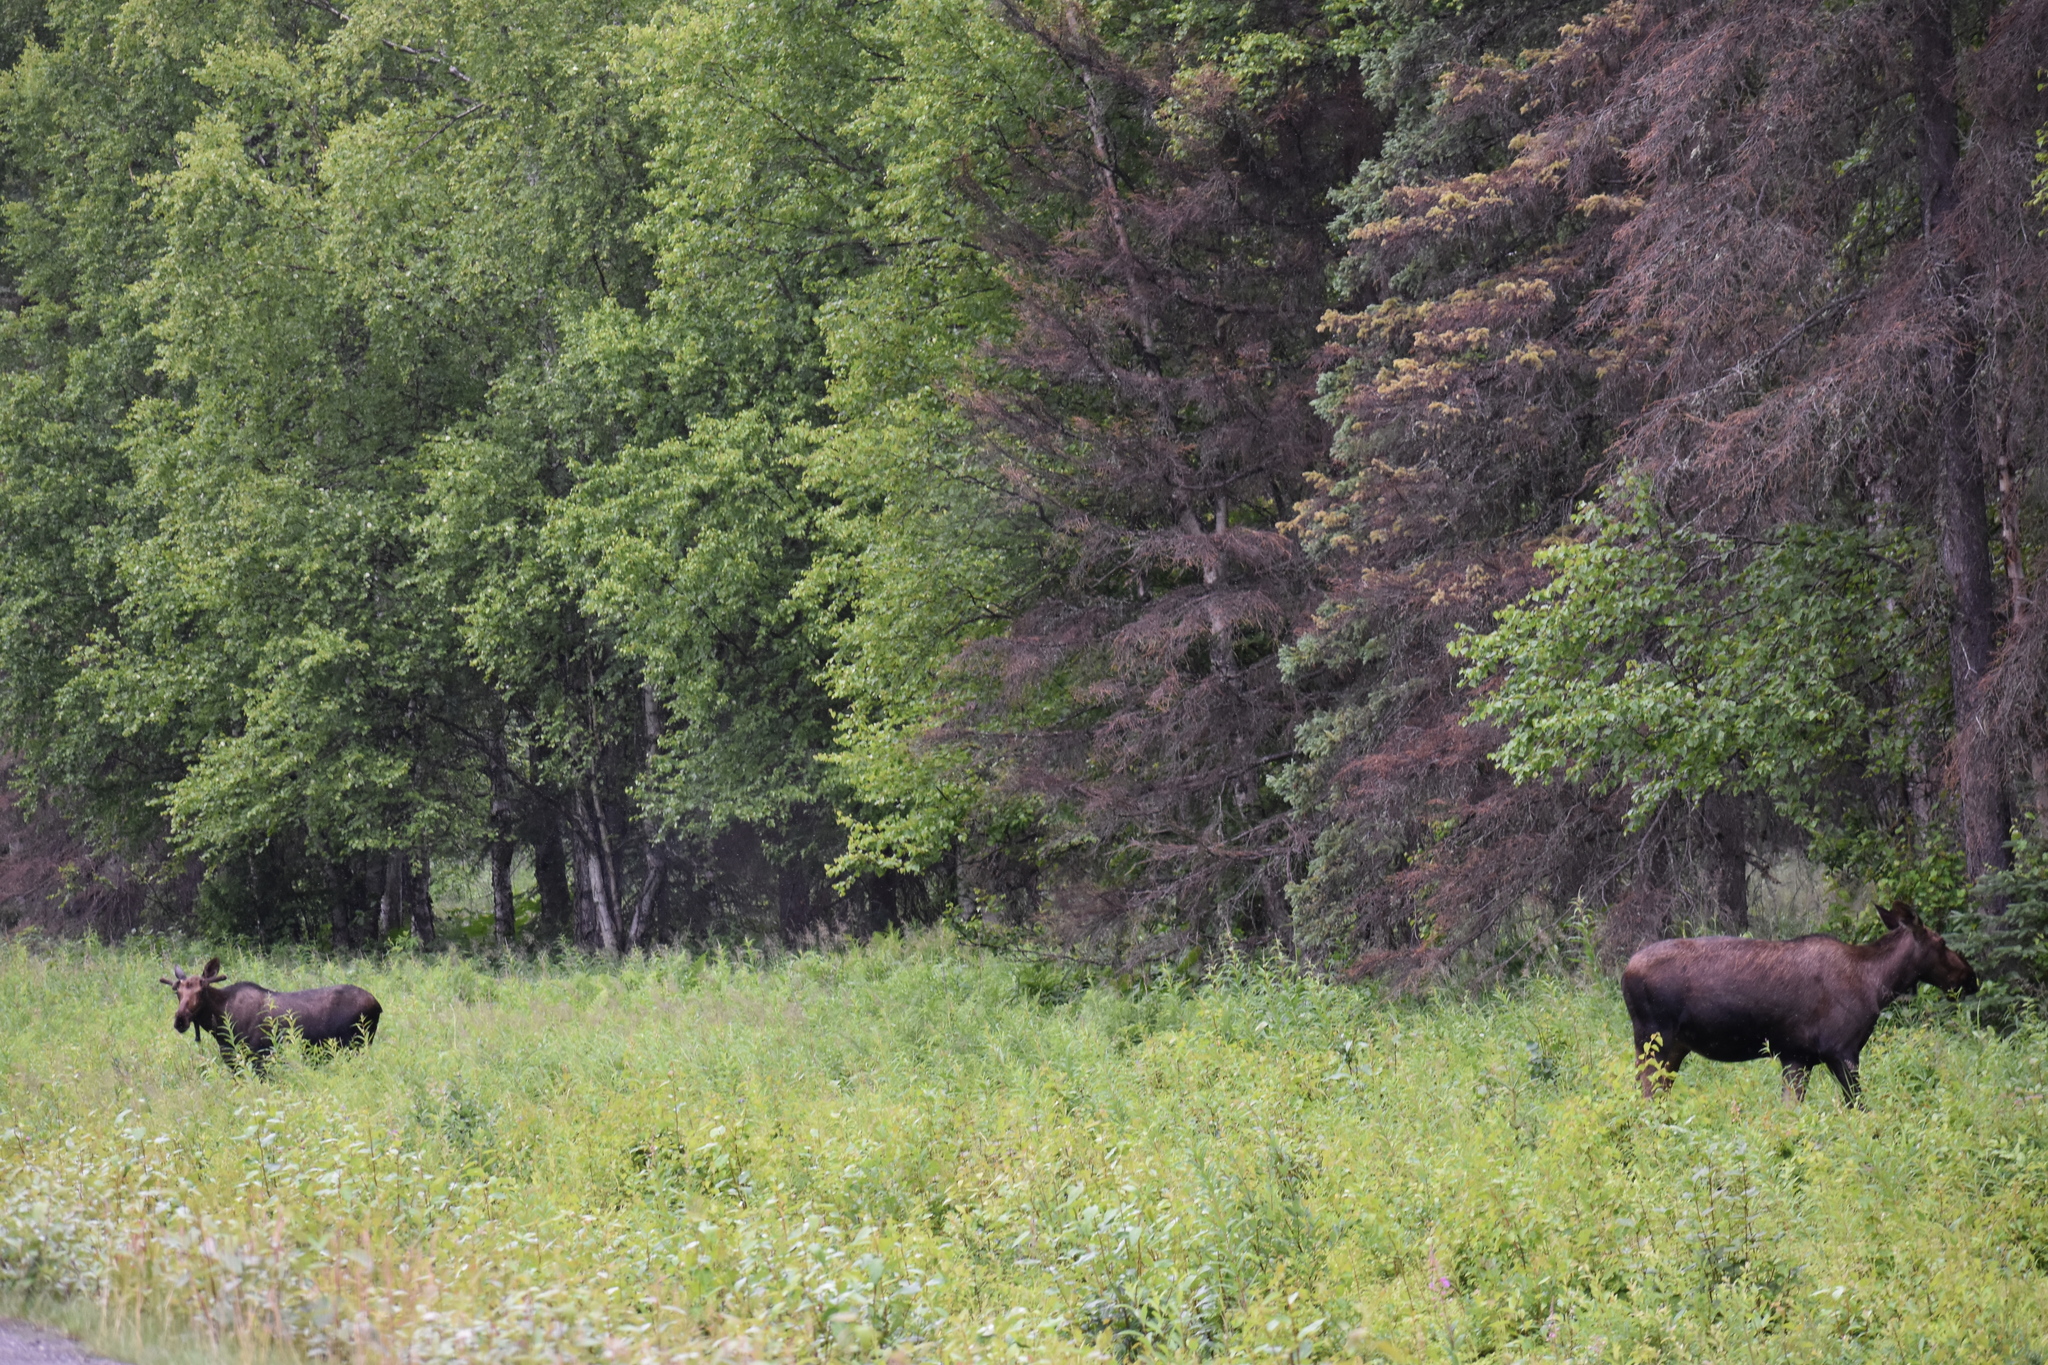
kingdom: Animalia
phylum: Chordata
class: Mammalia
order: Artiodactyla
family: Cervidae
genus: Alces
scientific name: Alces alces
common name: Moose
